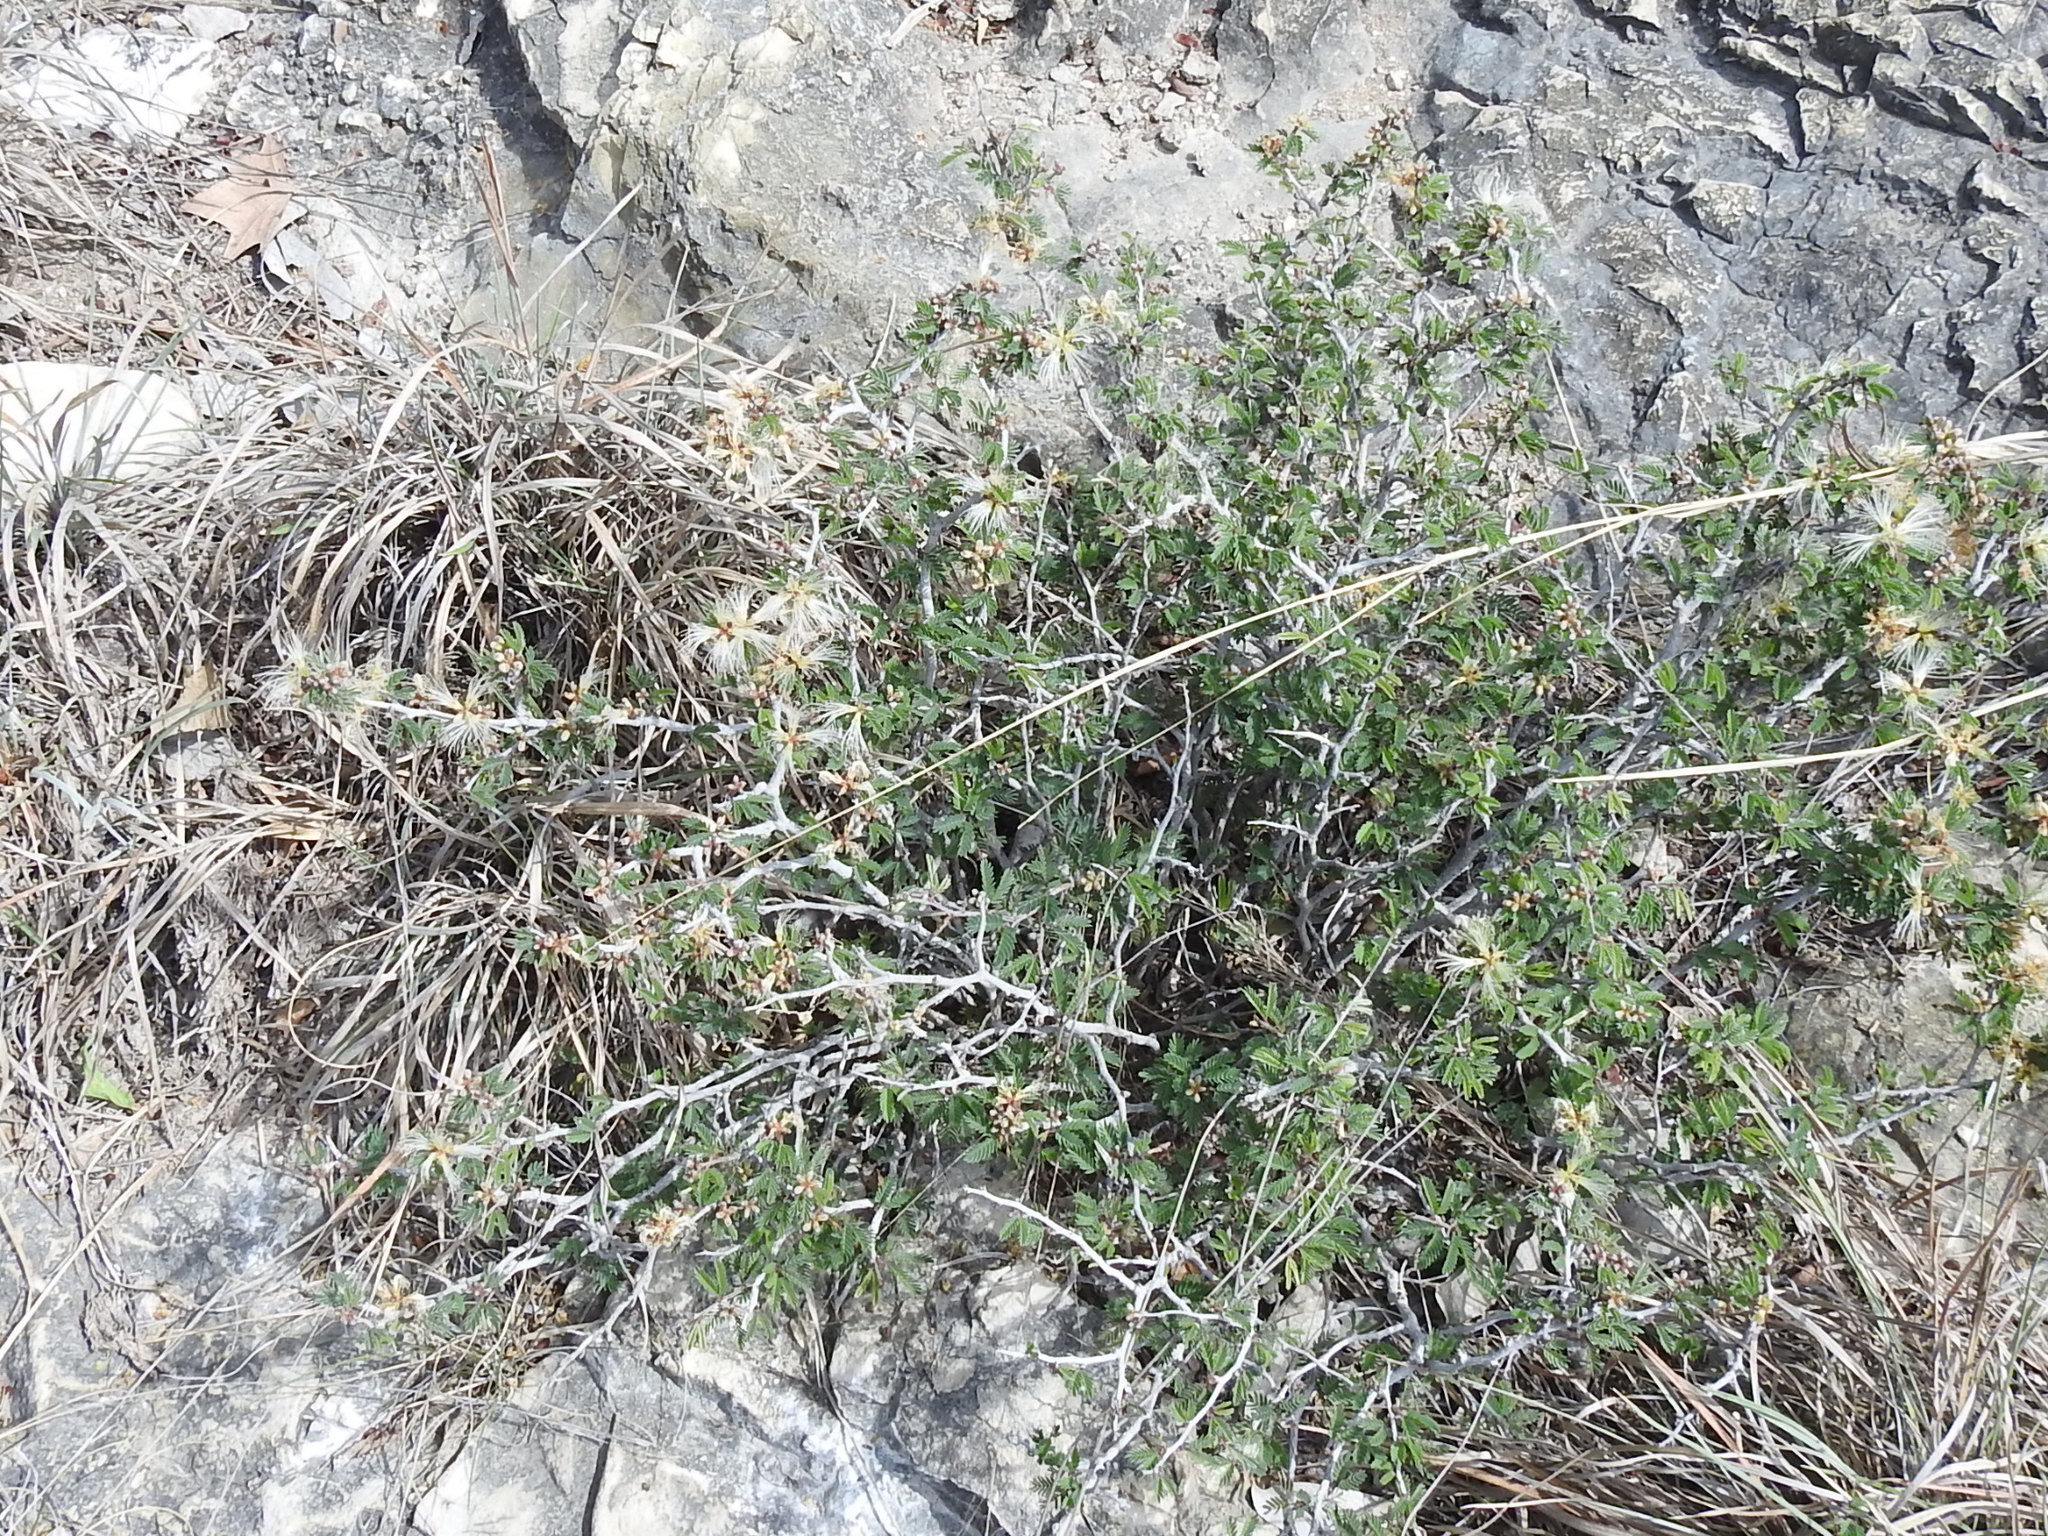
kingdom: Plantae
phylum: Tracheophyta
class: Magnoliopsida
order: Fabales
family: Fabaceae
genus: Calliandra
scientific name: Calliandra conferta
